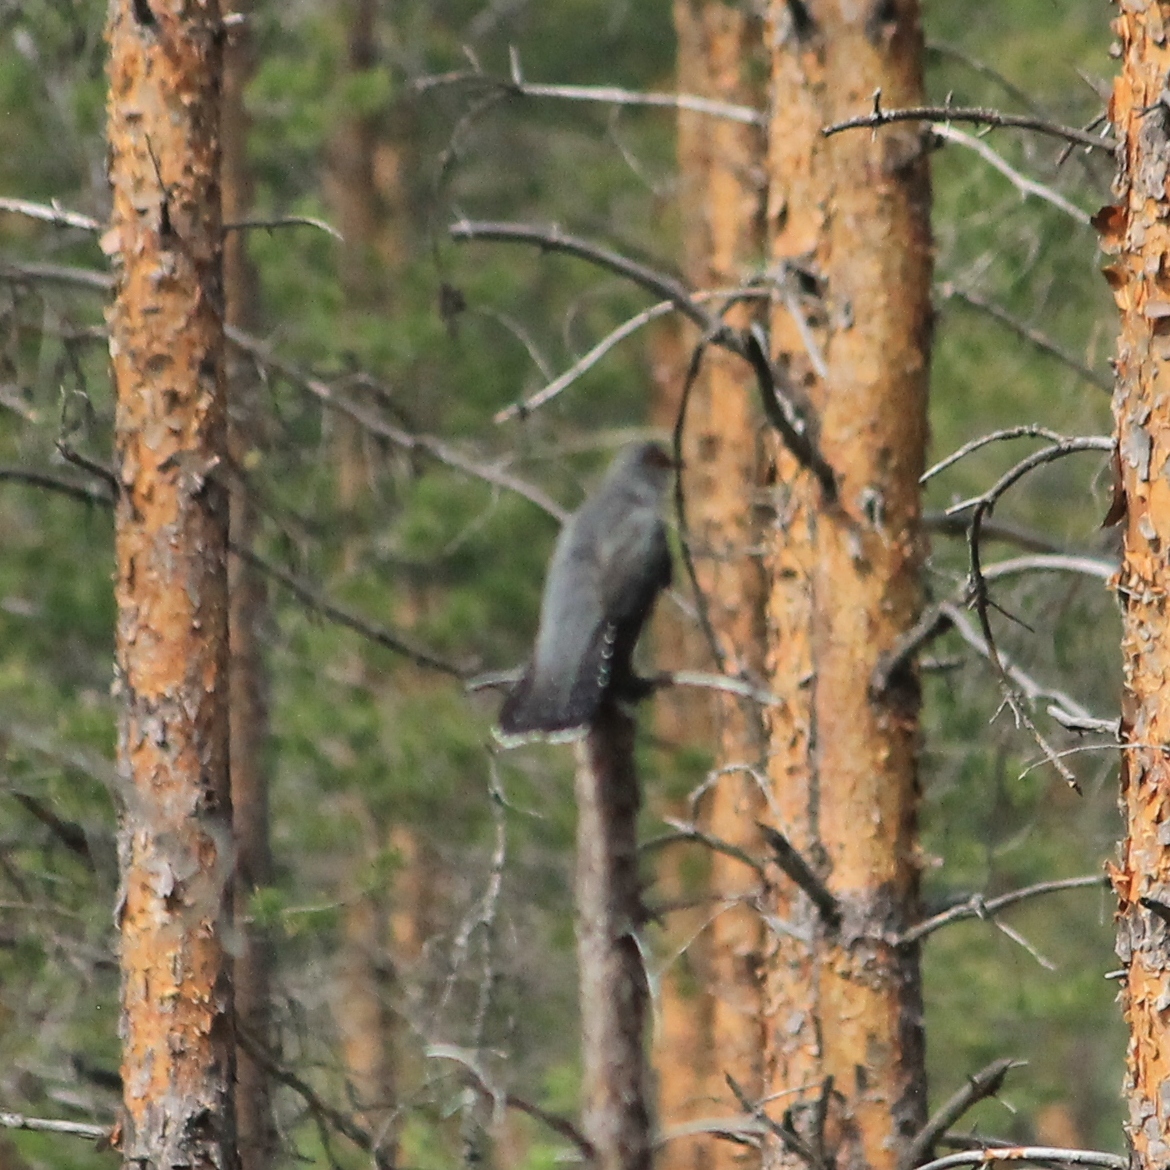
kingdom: Animalia
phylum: Chordata
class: Aves
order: Cuculiformes
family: Cuculidae
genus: Cuculus
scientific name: Cuculus canorus
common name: Common cuckoo
